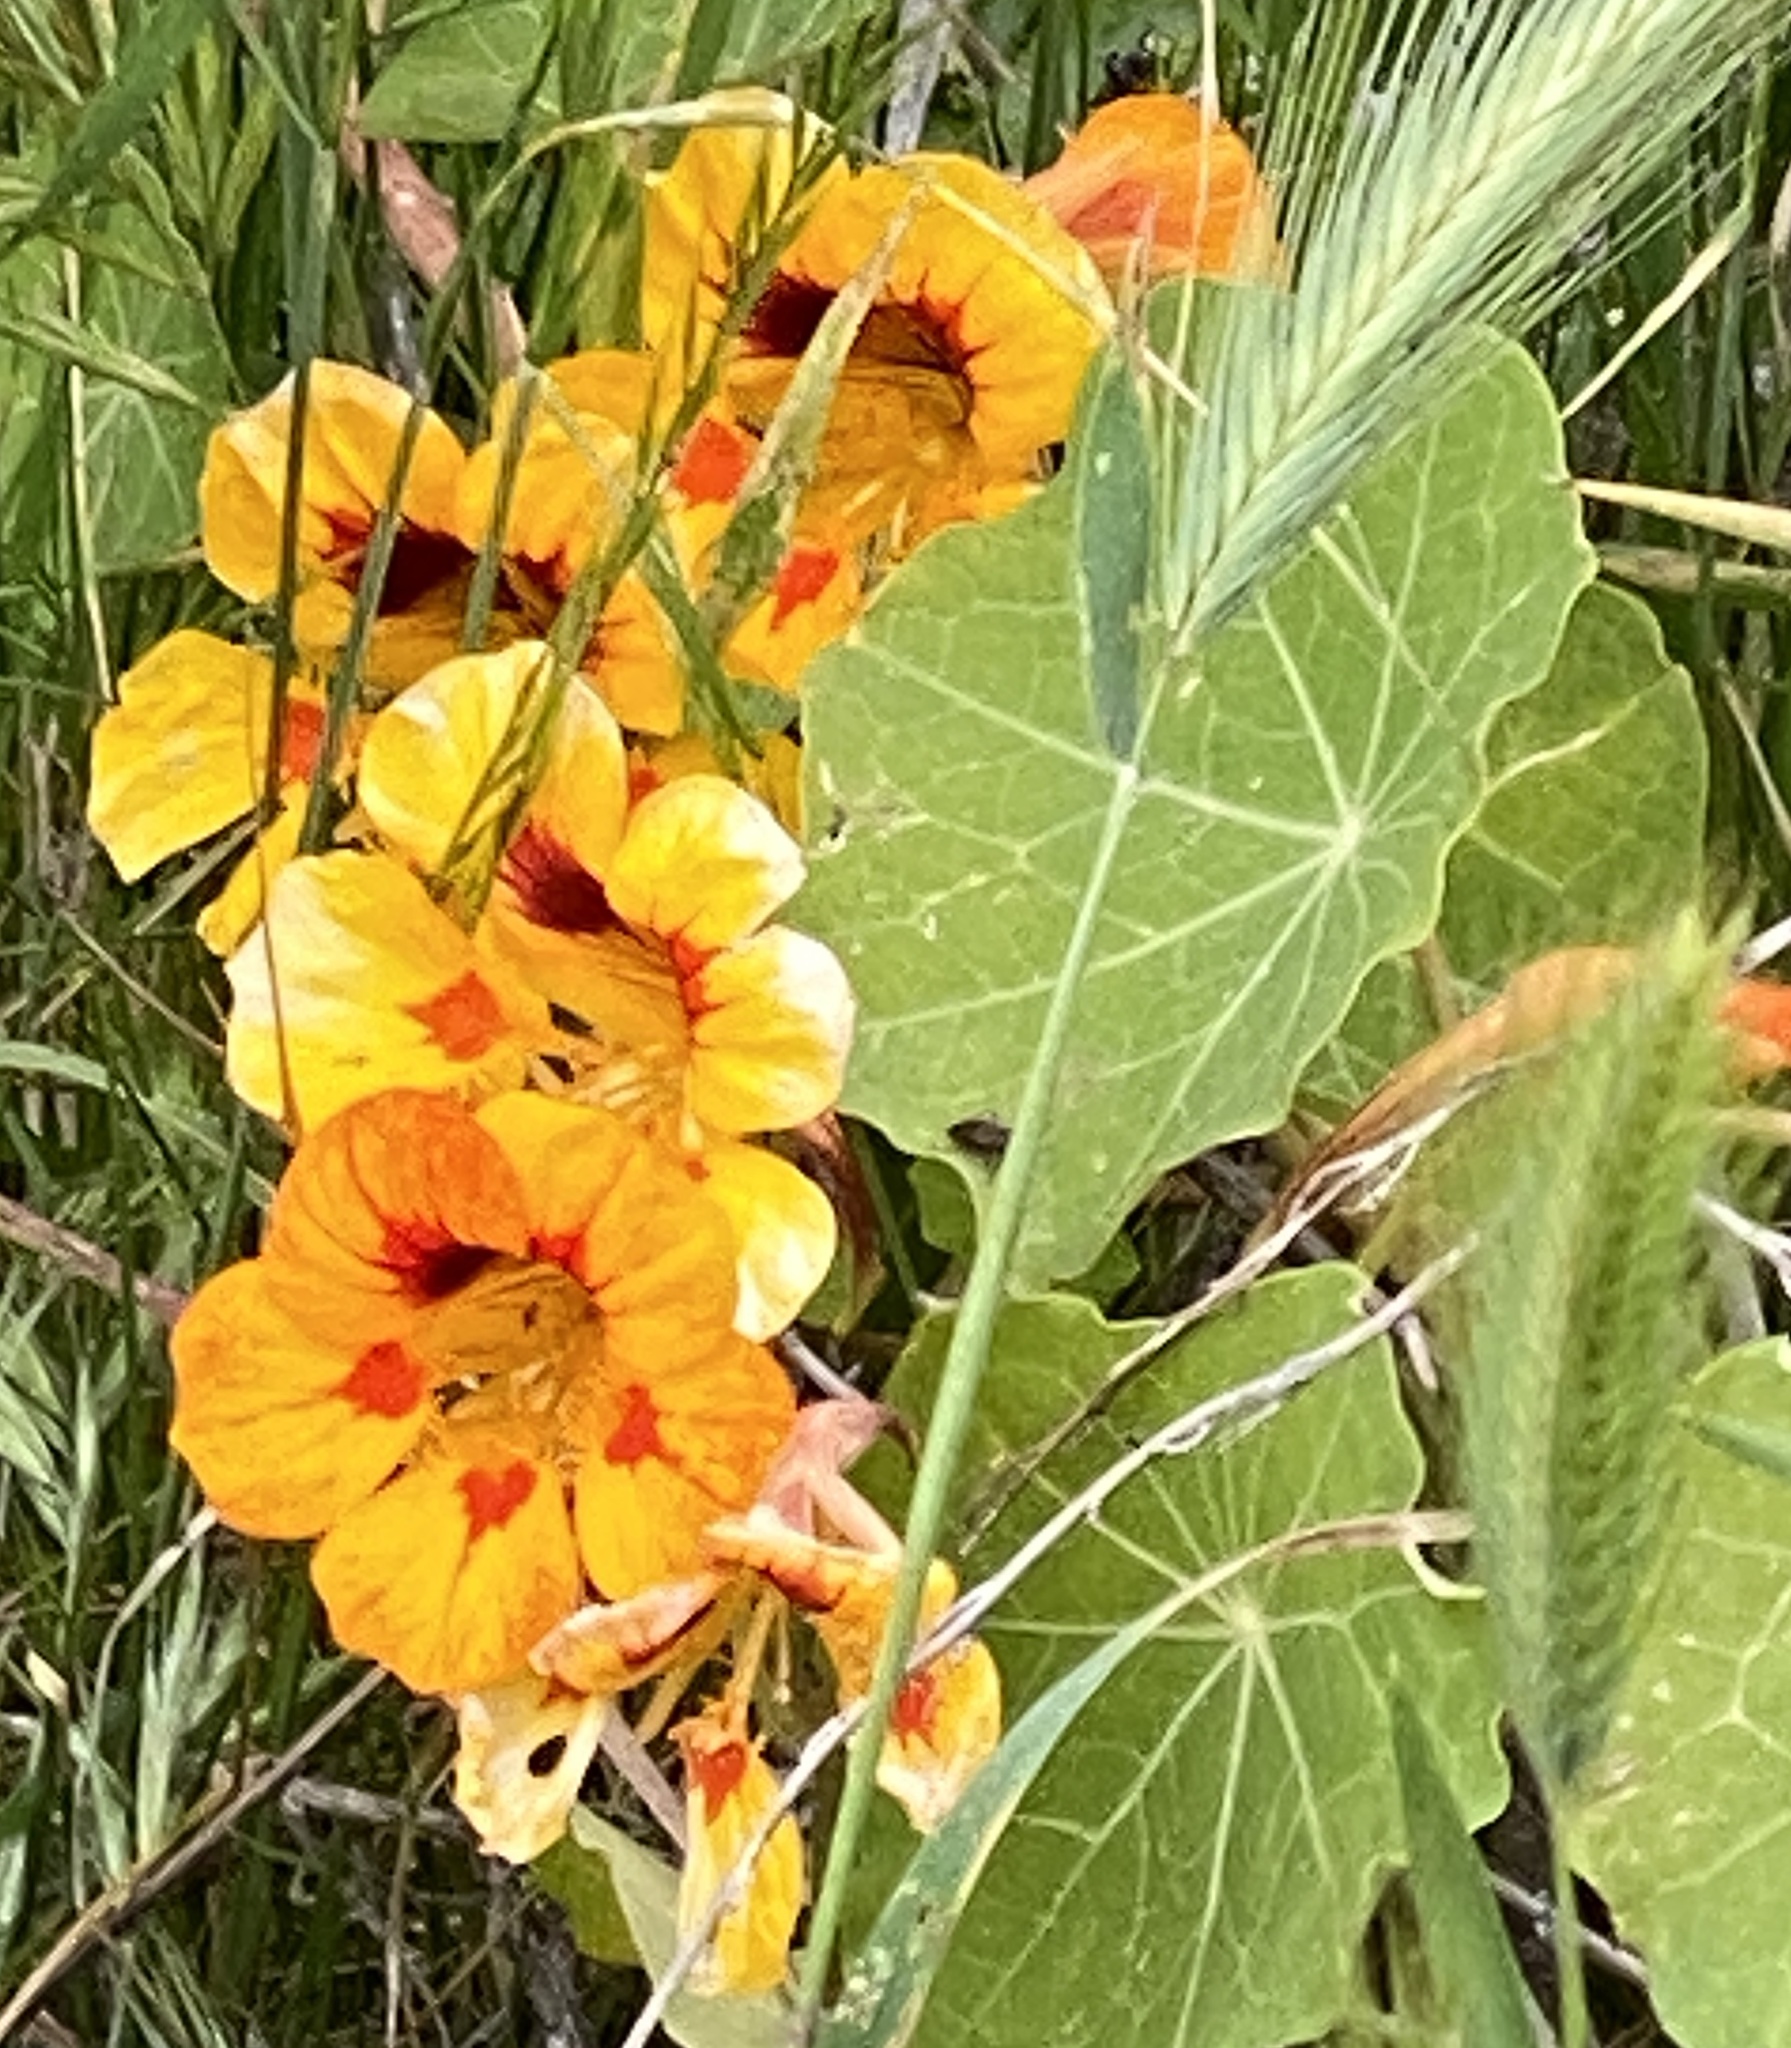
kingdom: Plantae
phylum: Tracheophyta
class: Magnoliopsida
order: Brassicales
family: Tropaeolaceae
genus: Tropaeolum
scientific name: Tropaeolum majus
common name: Nasturtium
